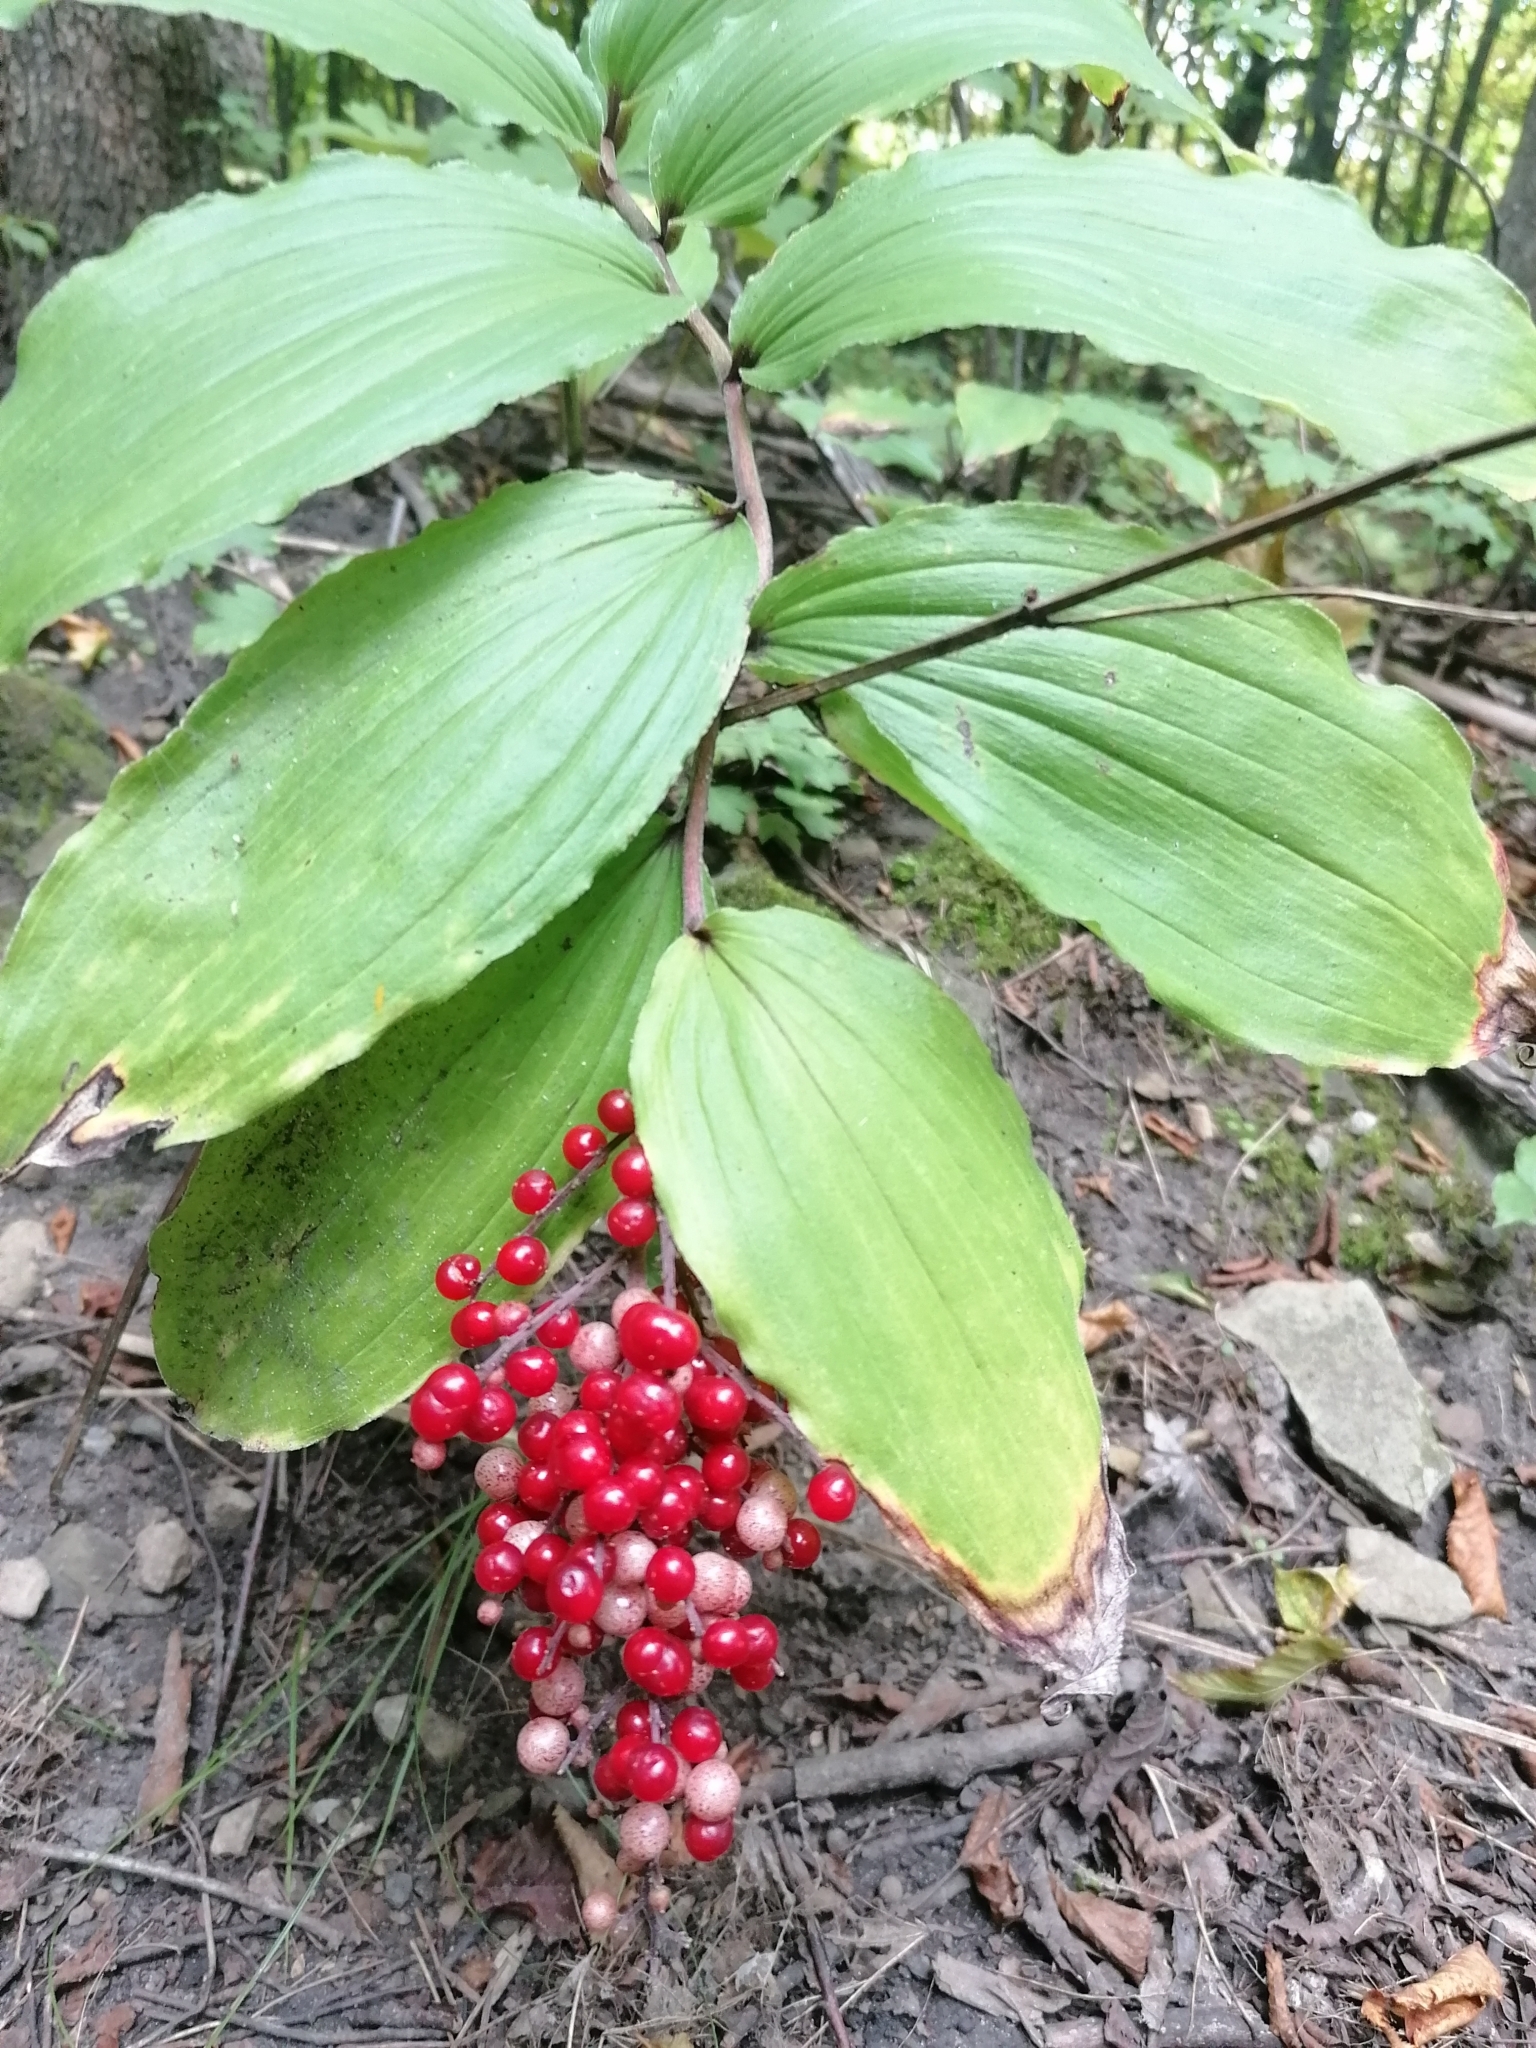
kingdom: Plantae
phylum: Tracheophyta
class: Liliopsida
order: Asparagales
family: Asparagaceae
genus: Maianthemum
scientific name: Maianthemum racemosum
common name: False spikenard
